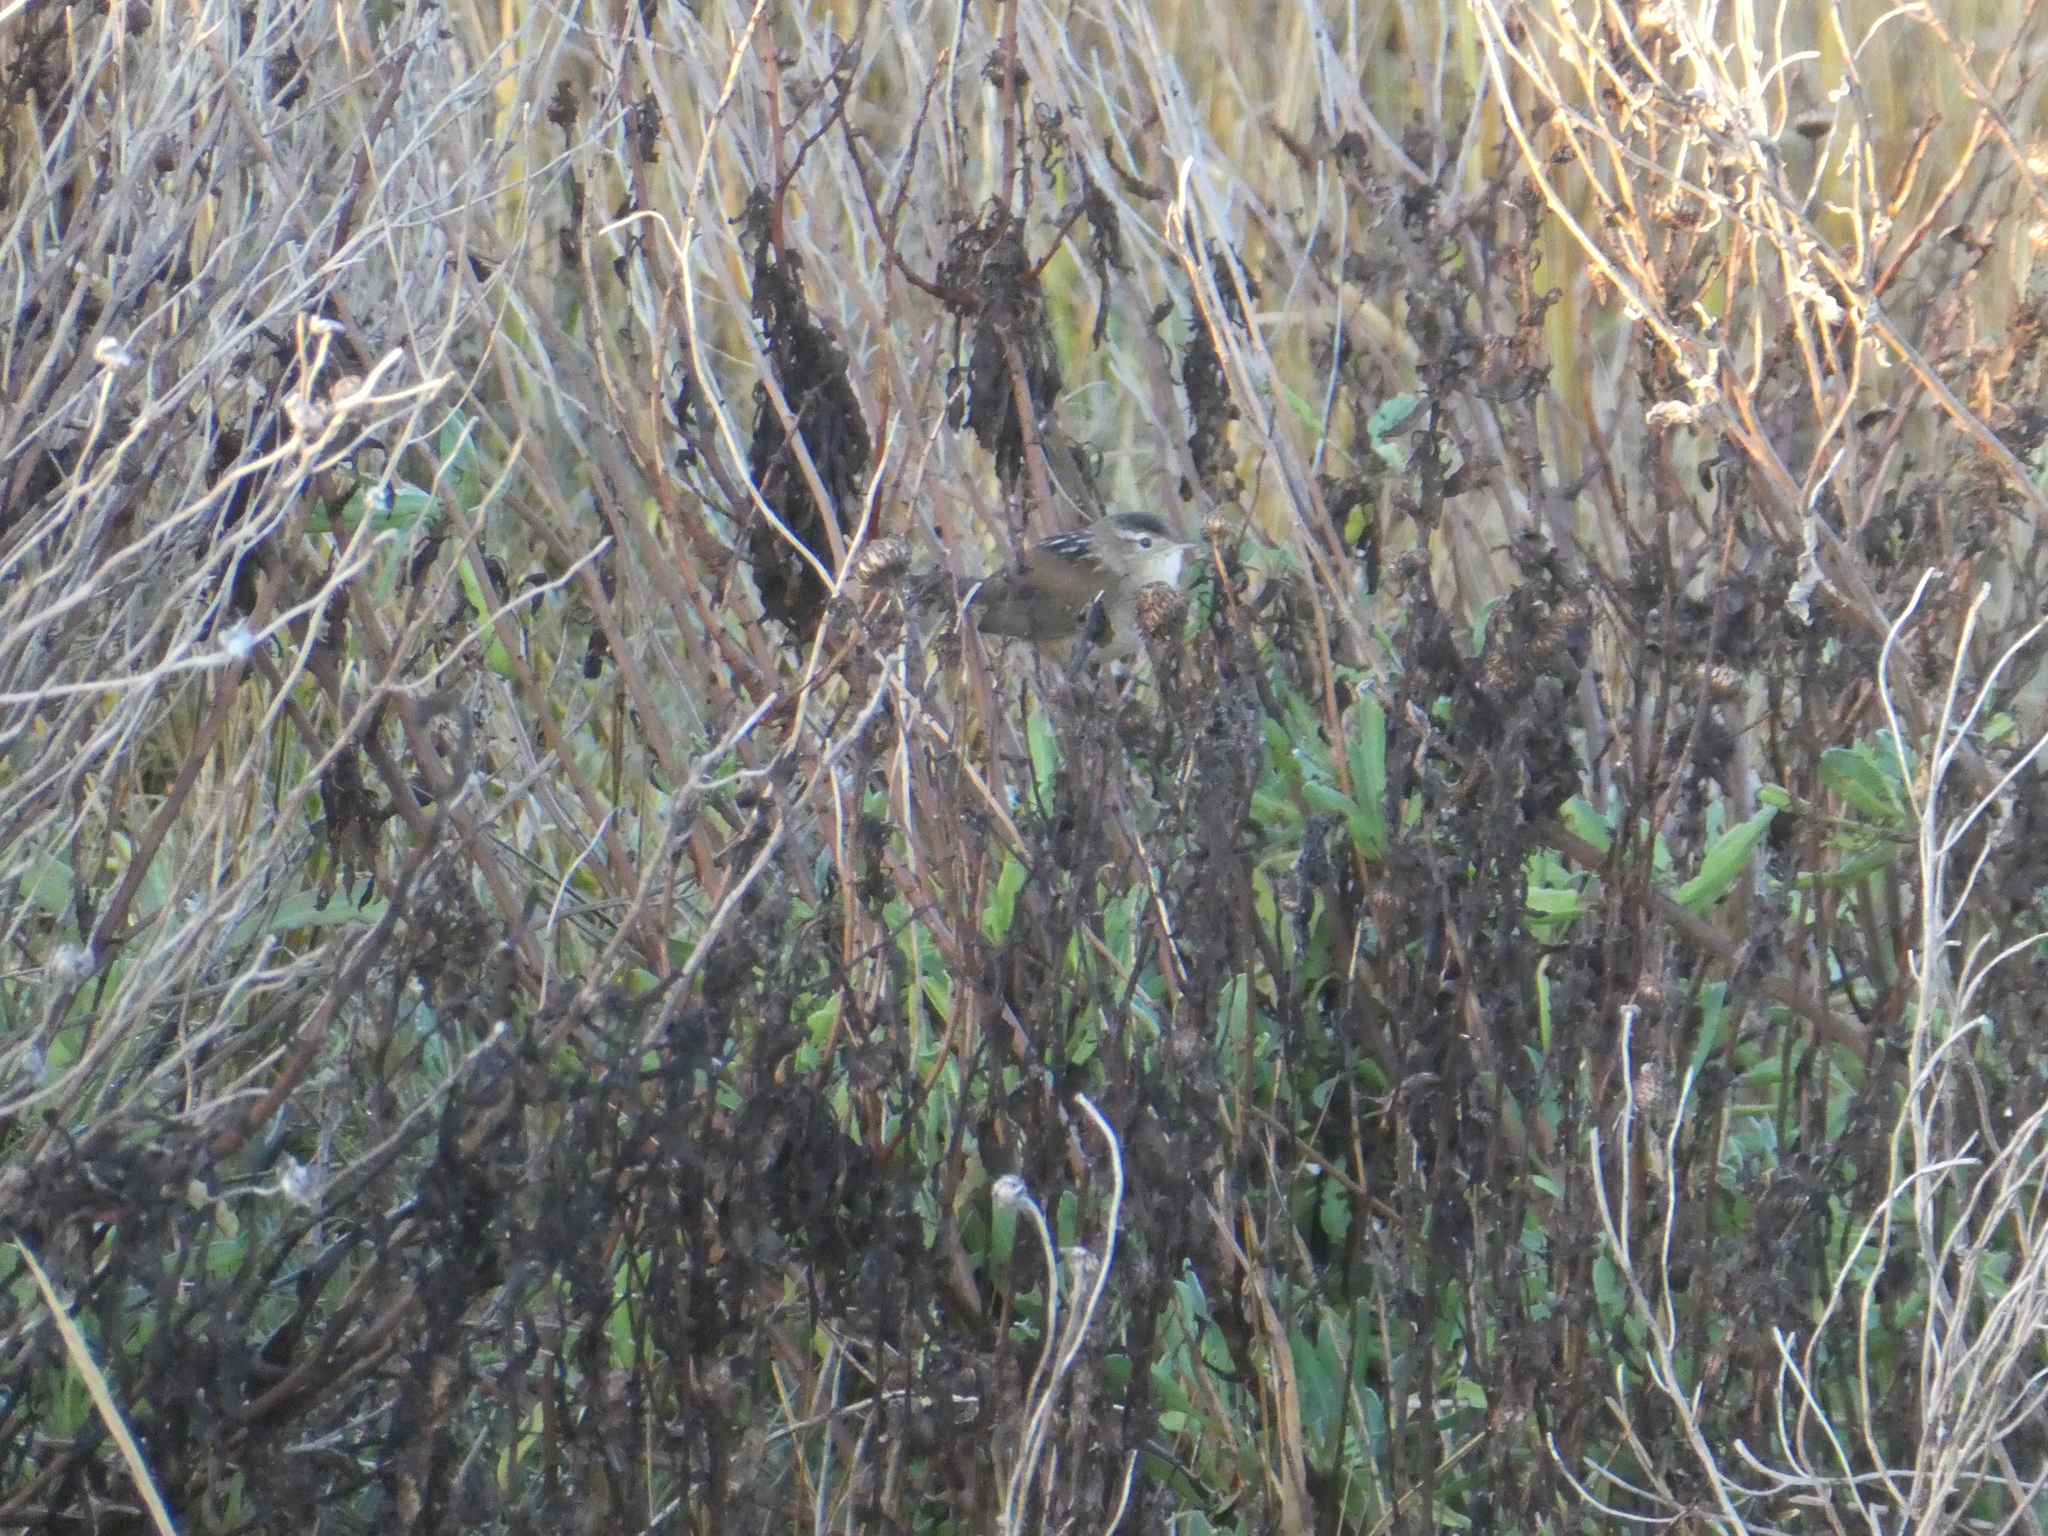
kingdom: Animalia
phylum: Chordata
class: Aves
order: Passeriformes
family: Troglodytidae
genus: Cistothorus
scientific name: Cistothorus palustris
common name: Marsh wren
